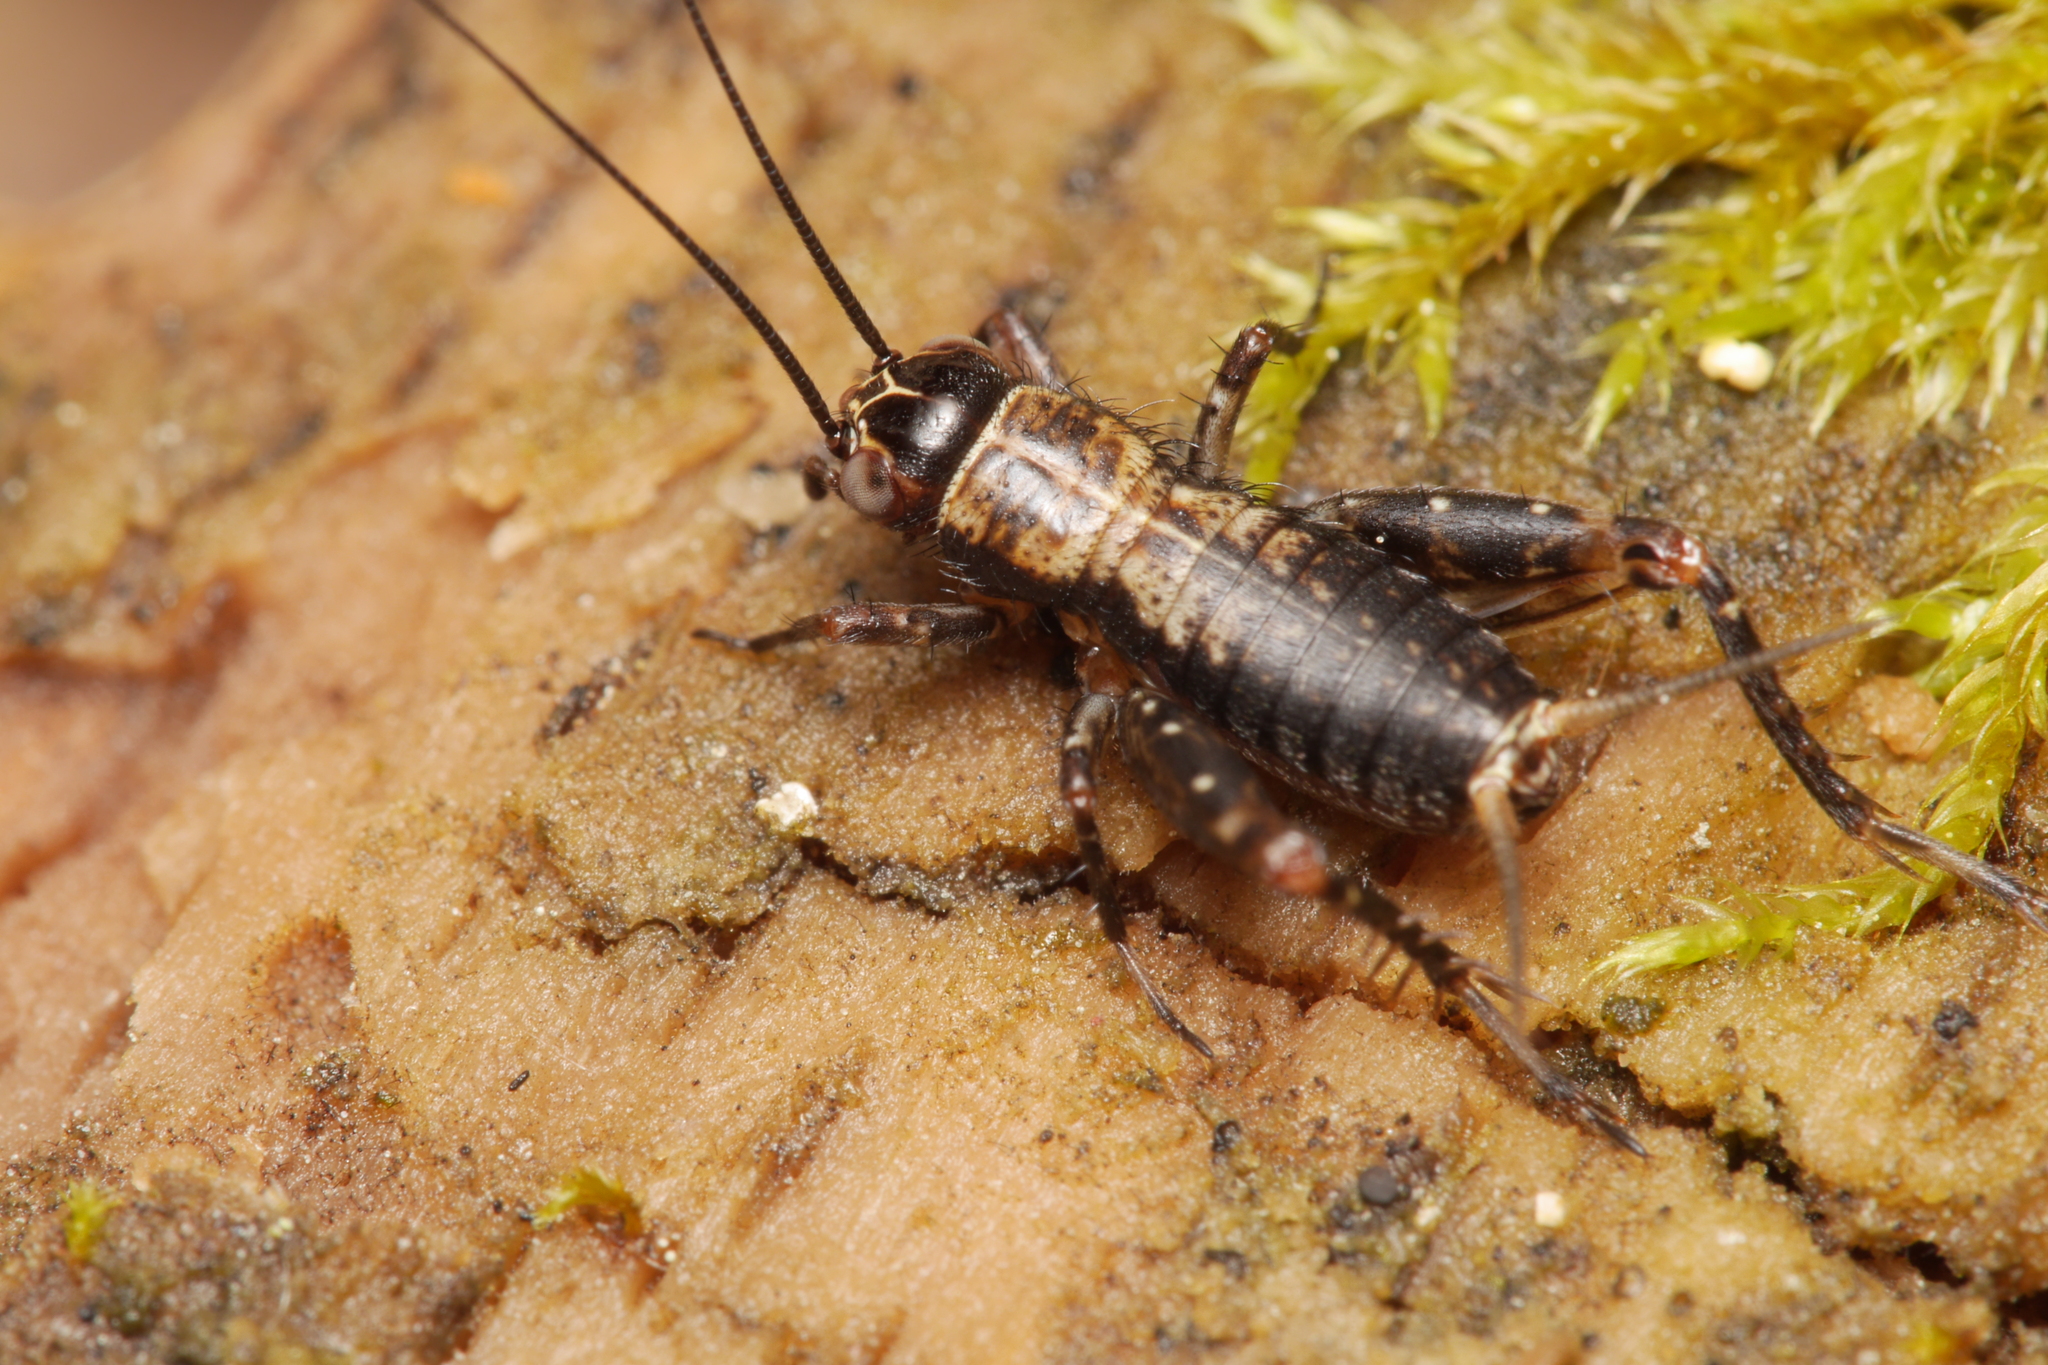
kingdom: Animalia
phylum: Arthropoda
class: Insecta
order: Orthoptera
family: Trigonidiidae
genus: Nemobius
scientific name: Nemobius sylvestris
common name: Wood-cricket
